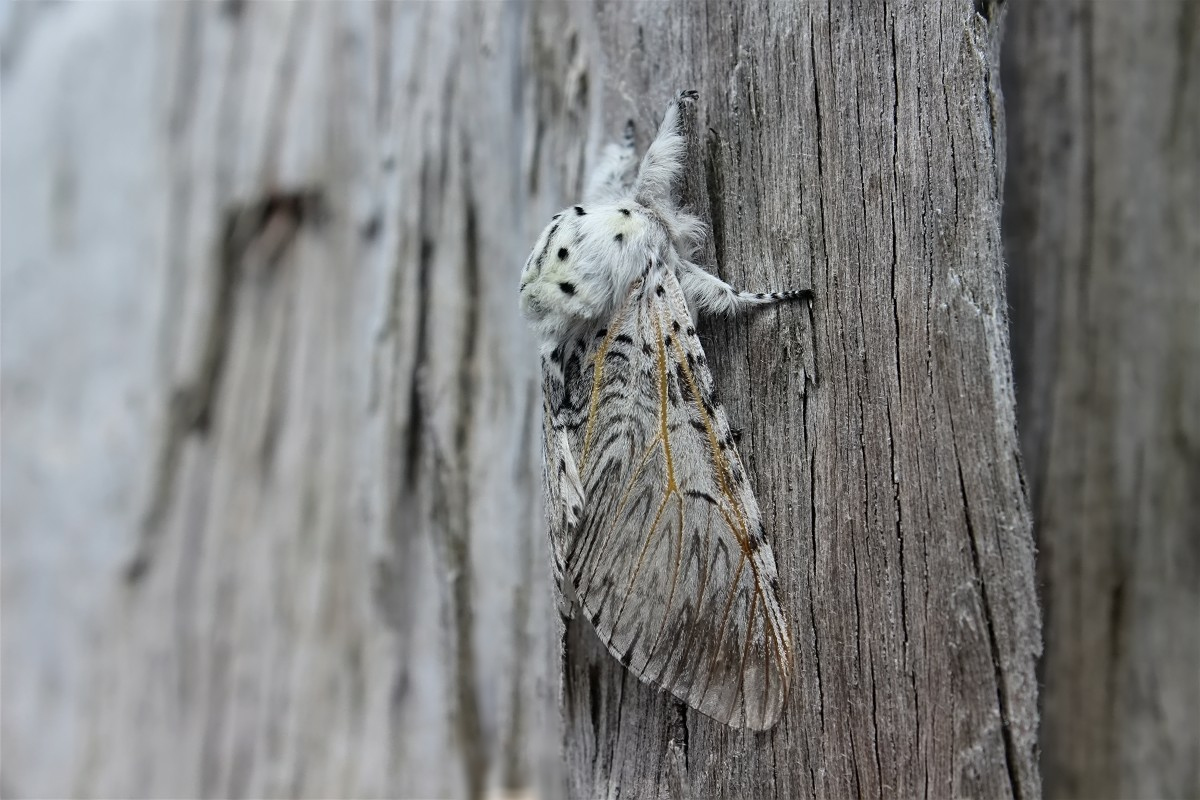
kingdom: Animalia
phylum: Arthropoda
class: Insecta
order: Lepidoptera
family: Notodontidae
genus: Cerura
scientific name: Cerura vinula
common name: Puss moth
